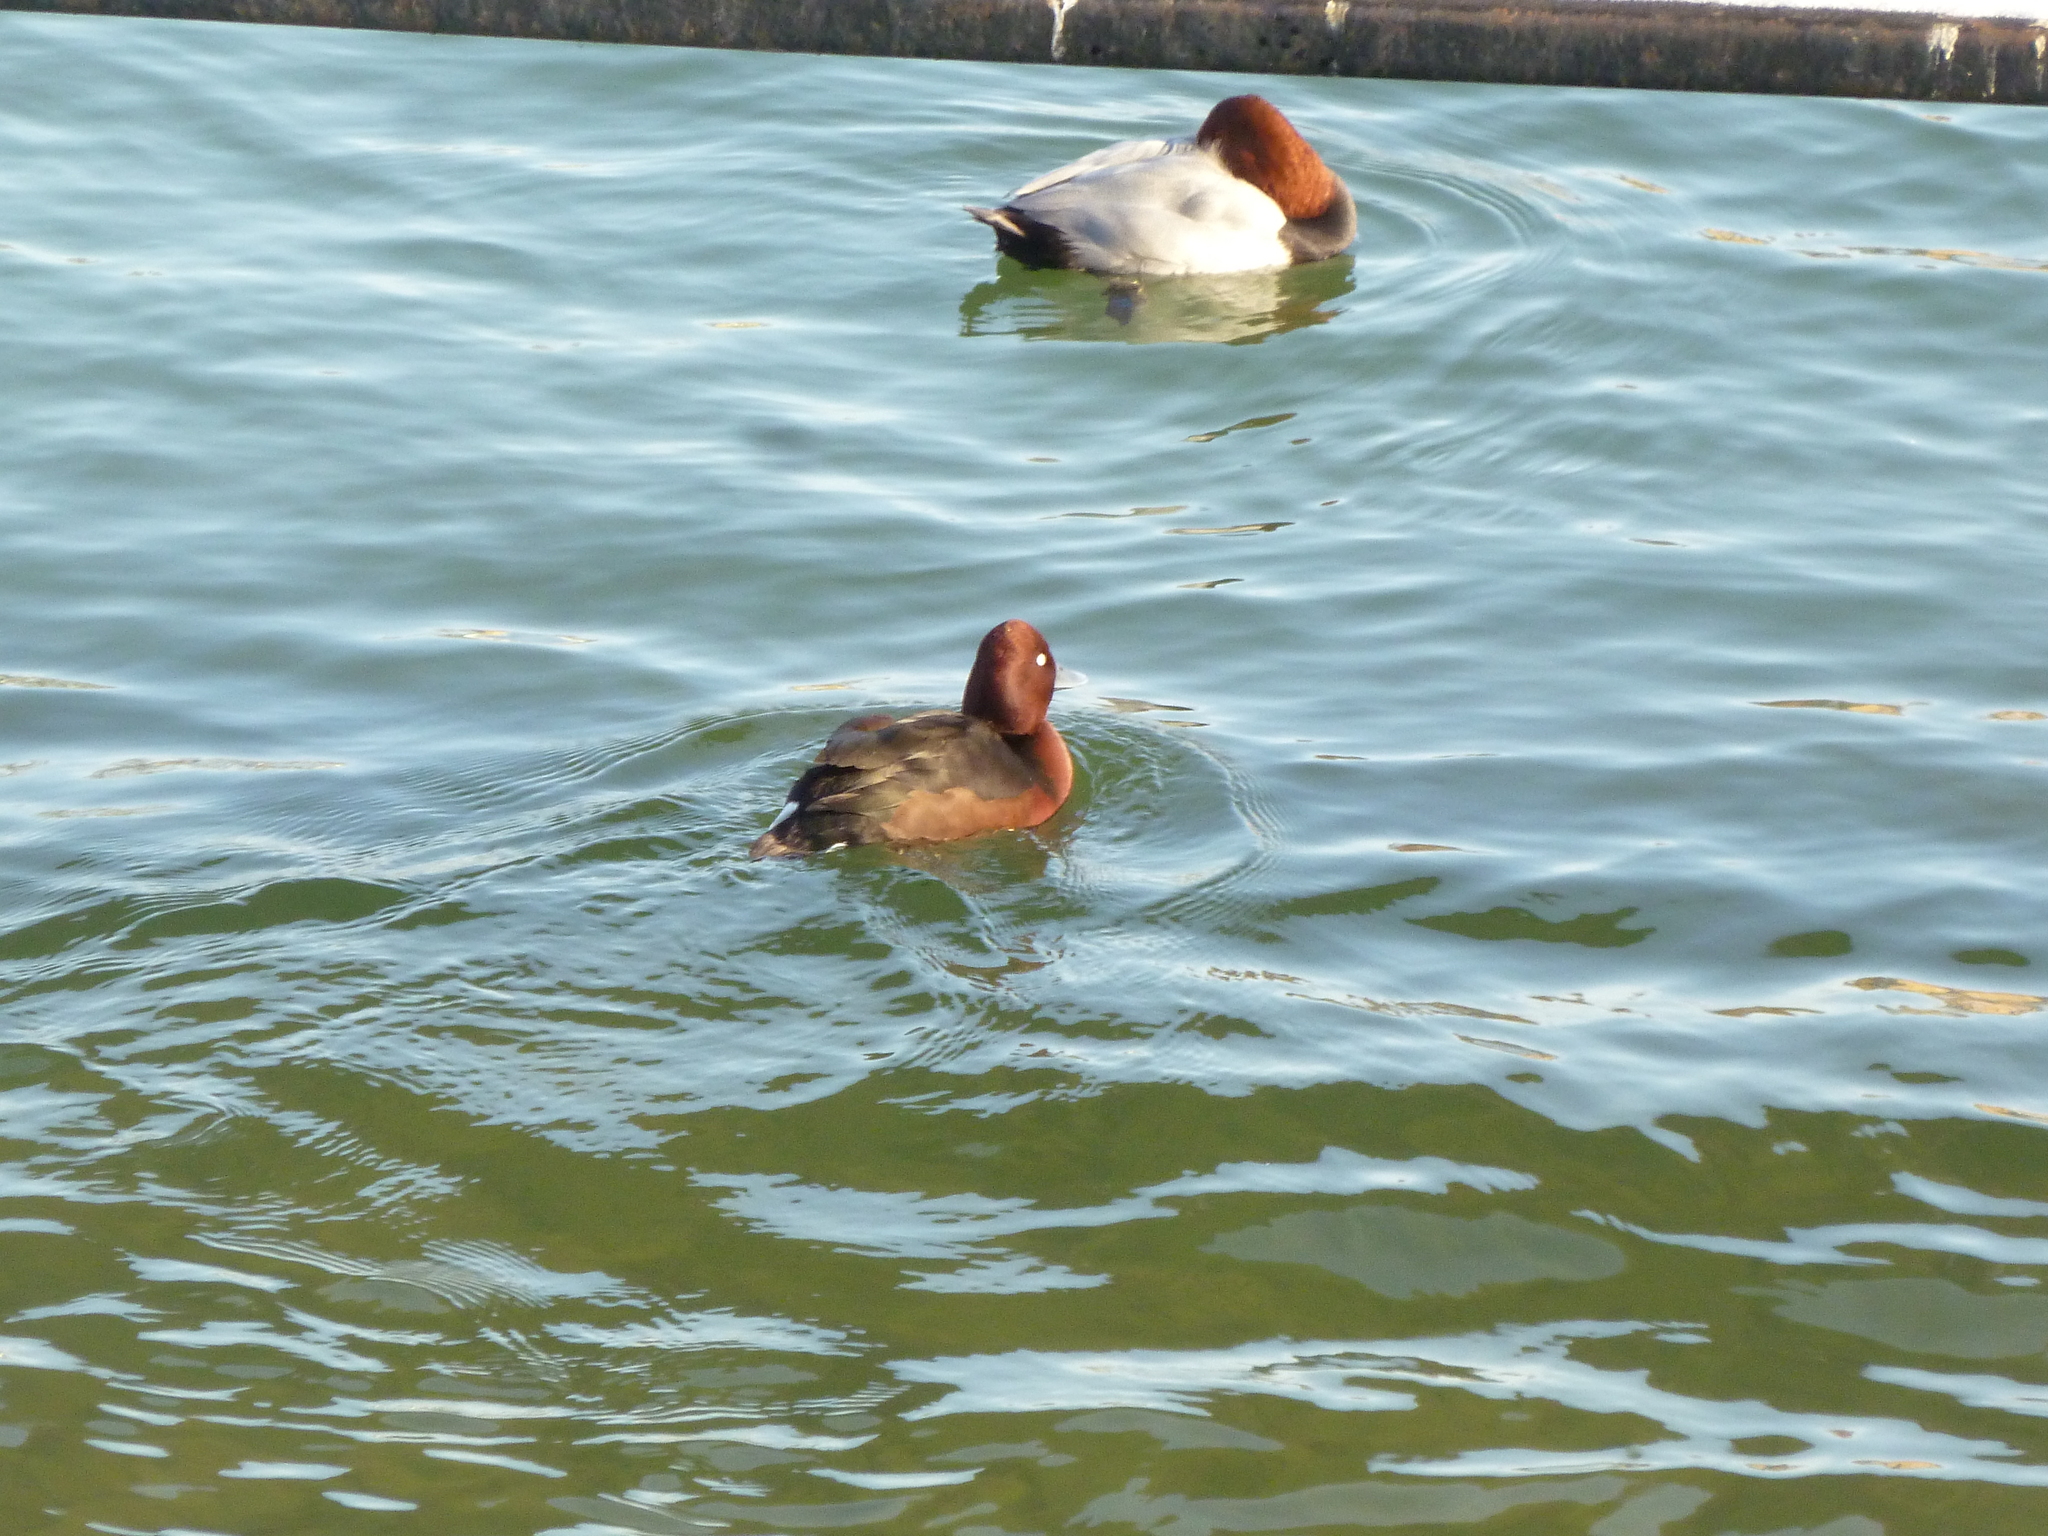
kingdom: Animalia
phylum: Chordata
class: Aves
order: Anseriformes
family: Anatidae
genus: Aythya
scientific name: Aythya nyroca
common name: Ferruginous duck
